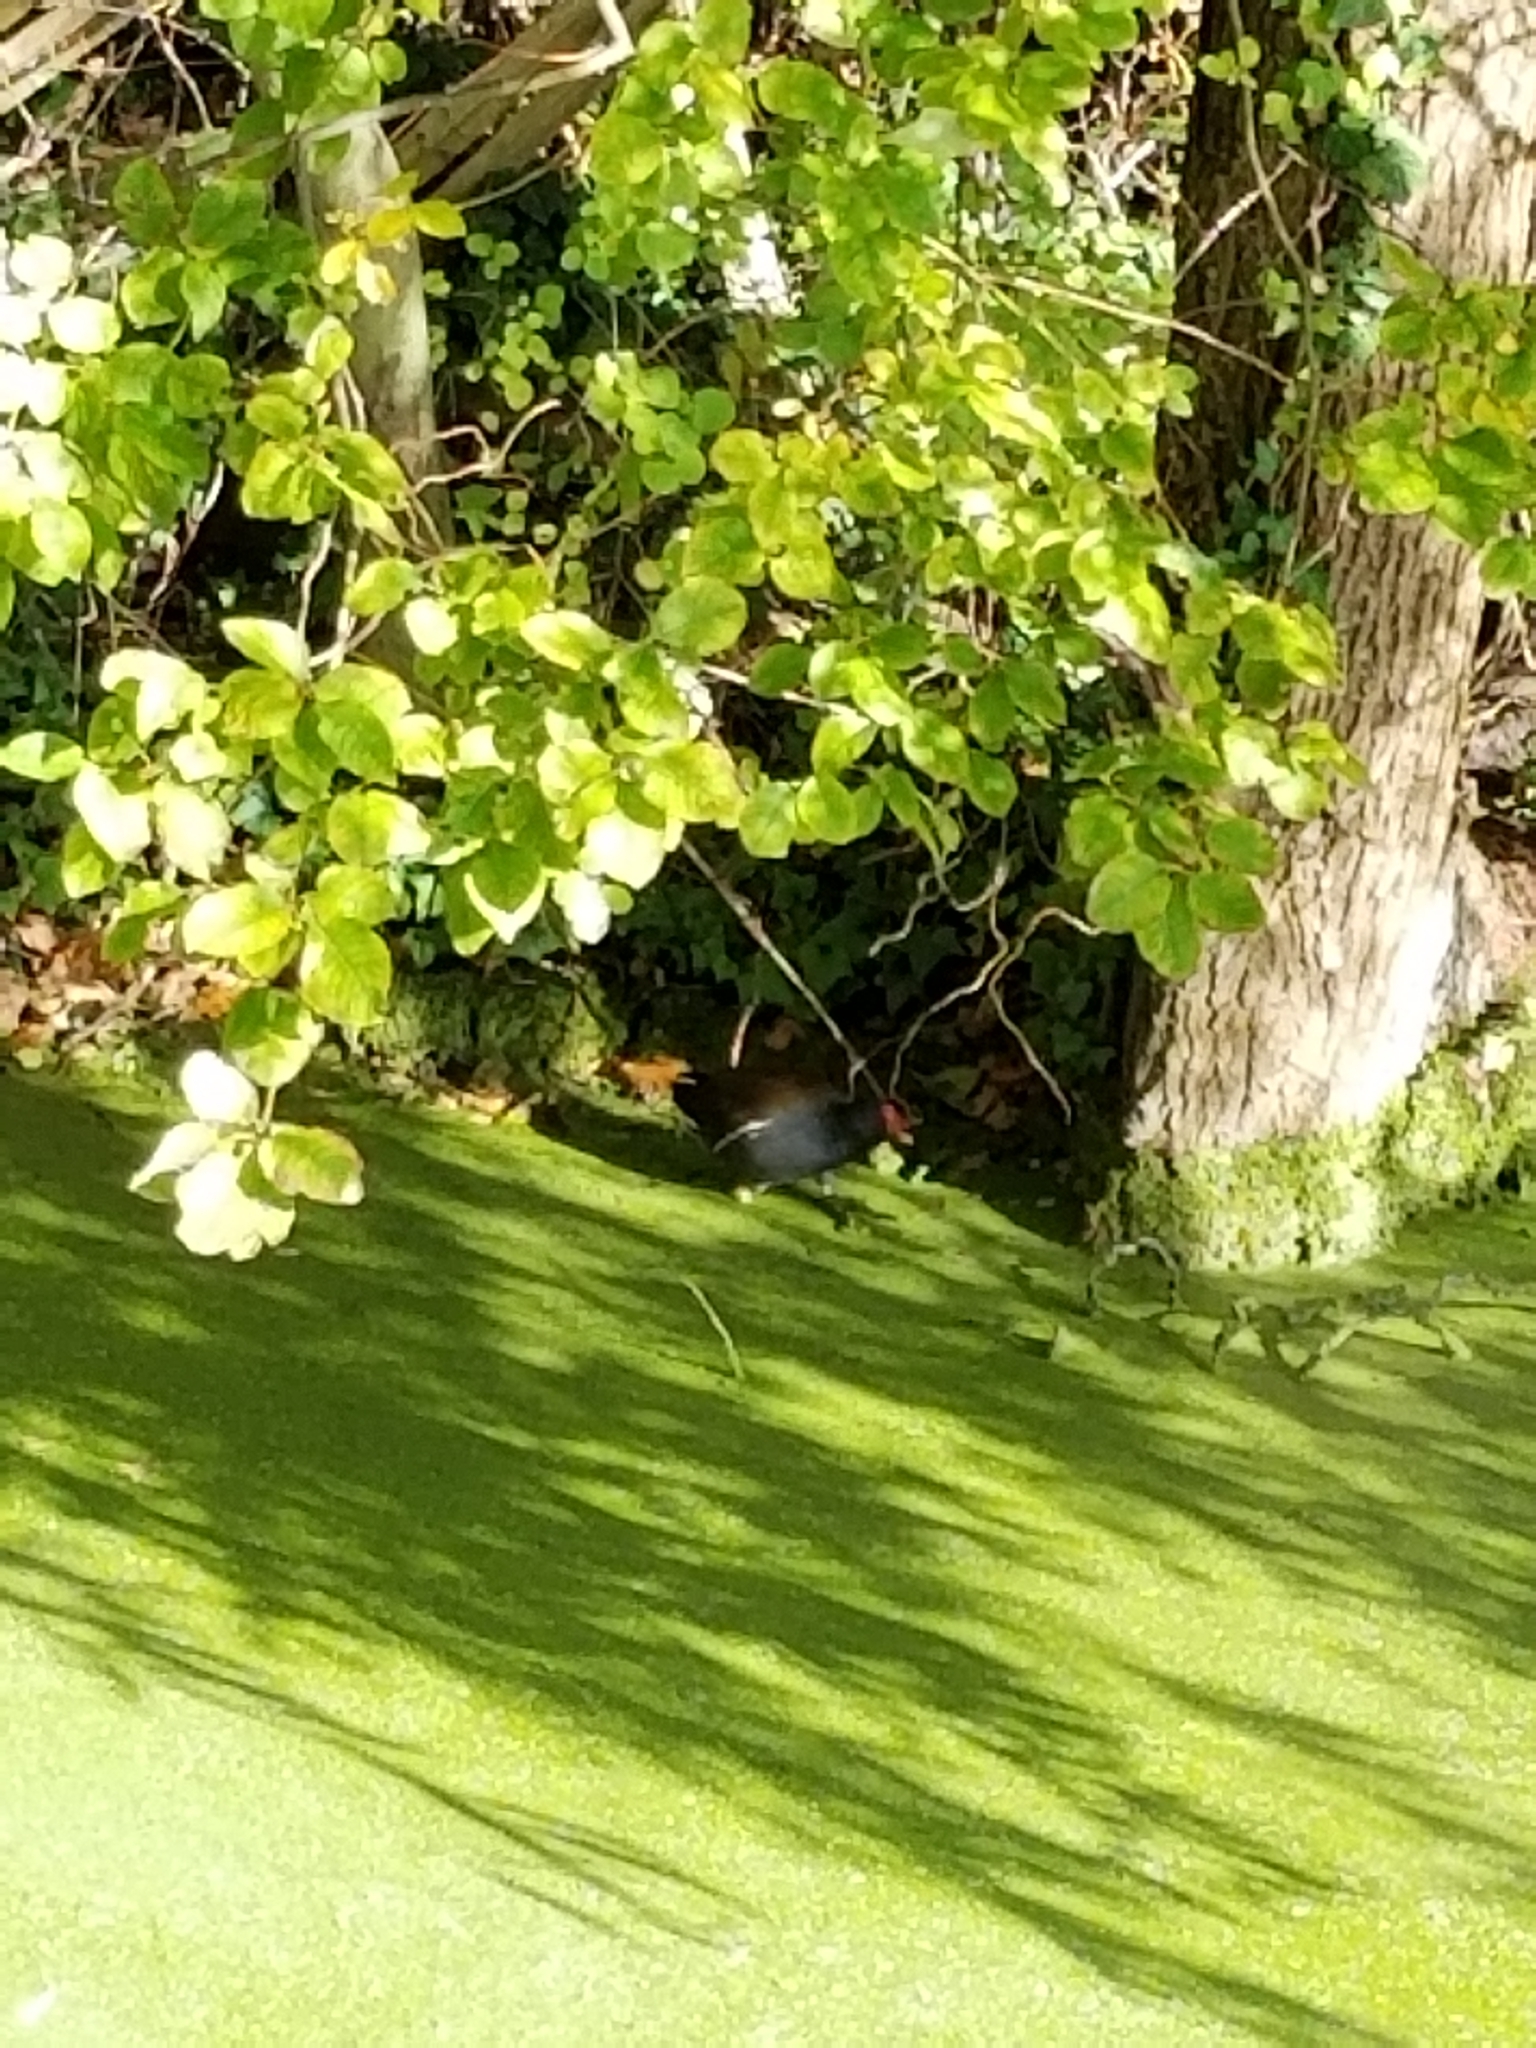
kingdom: Animalia
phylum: Chordata
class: Aves
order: Gruiformes
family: Rallidae
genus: Gallinula
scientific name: Gallinula chloropus
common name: Common moorhen
